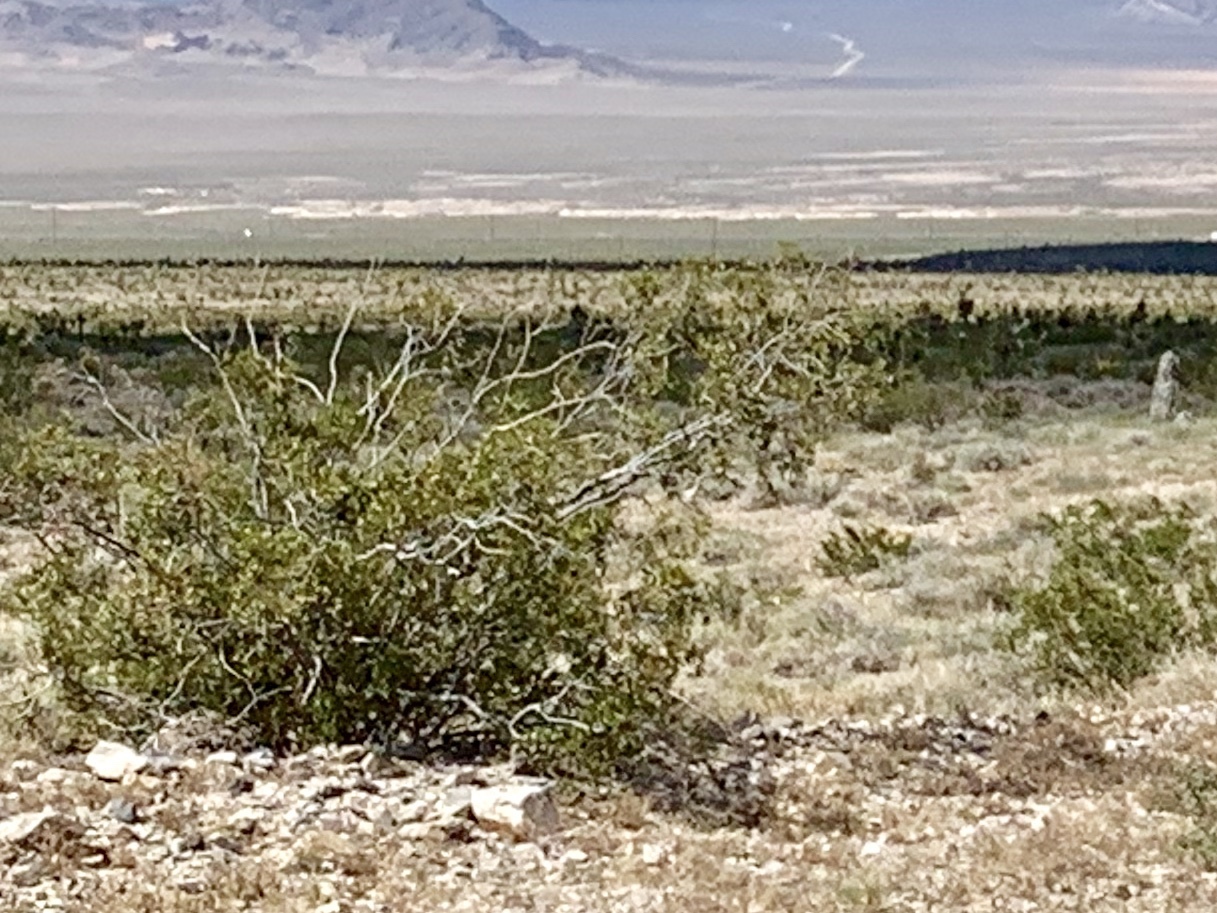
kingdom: Plantae
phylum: Tracheophyta
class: Magnoliopsida
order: Zygophyllales
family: Zygophyllaceae
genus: Larrea
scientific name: Larrea tridentata
